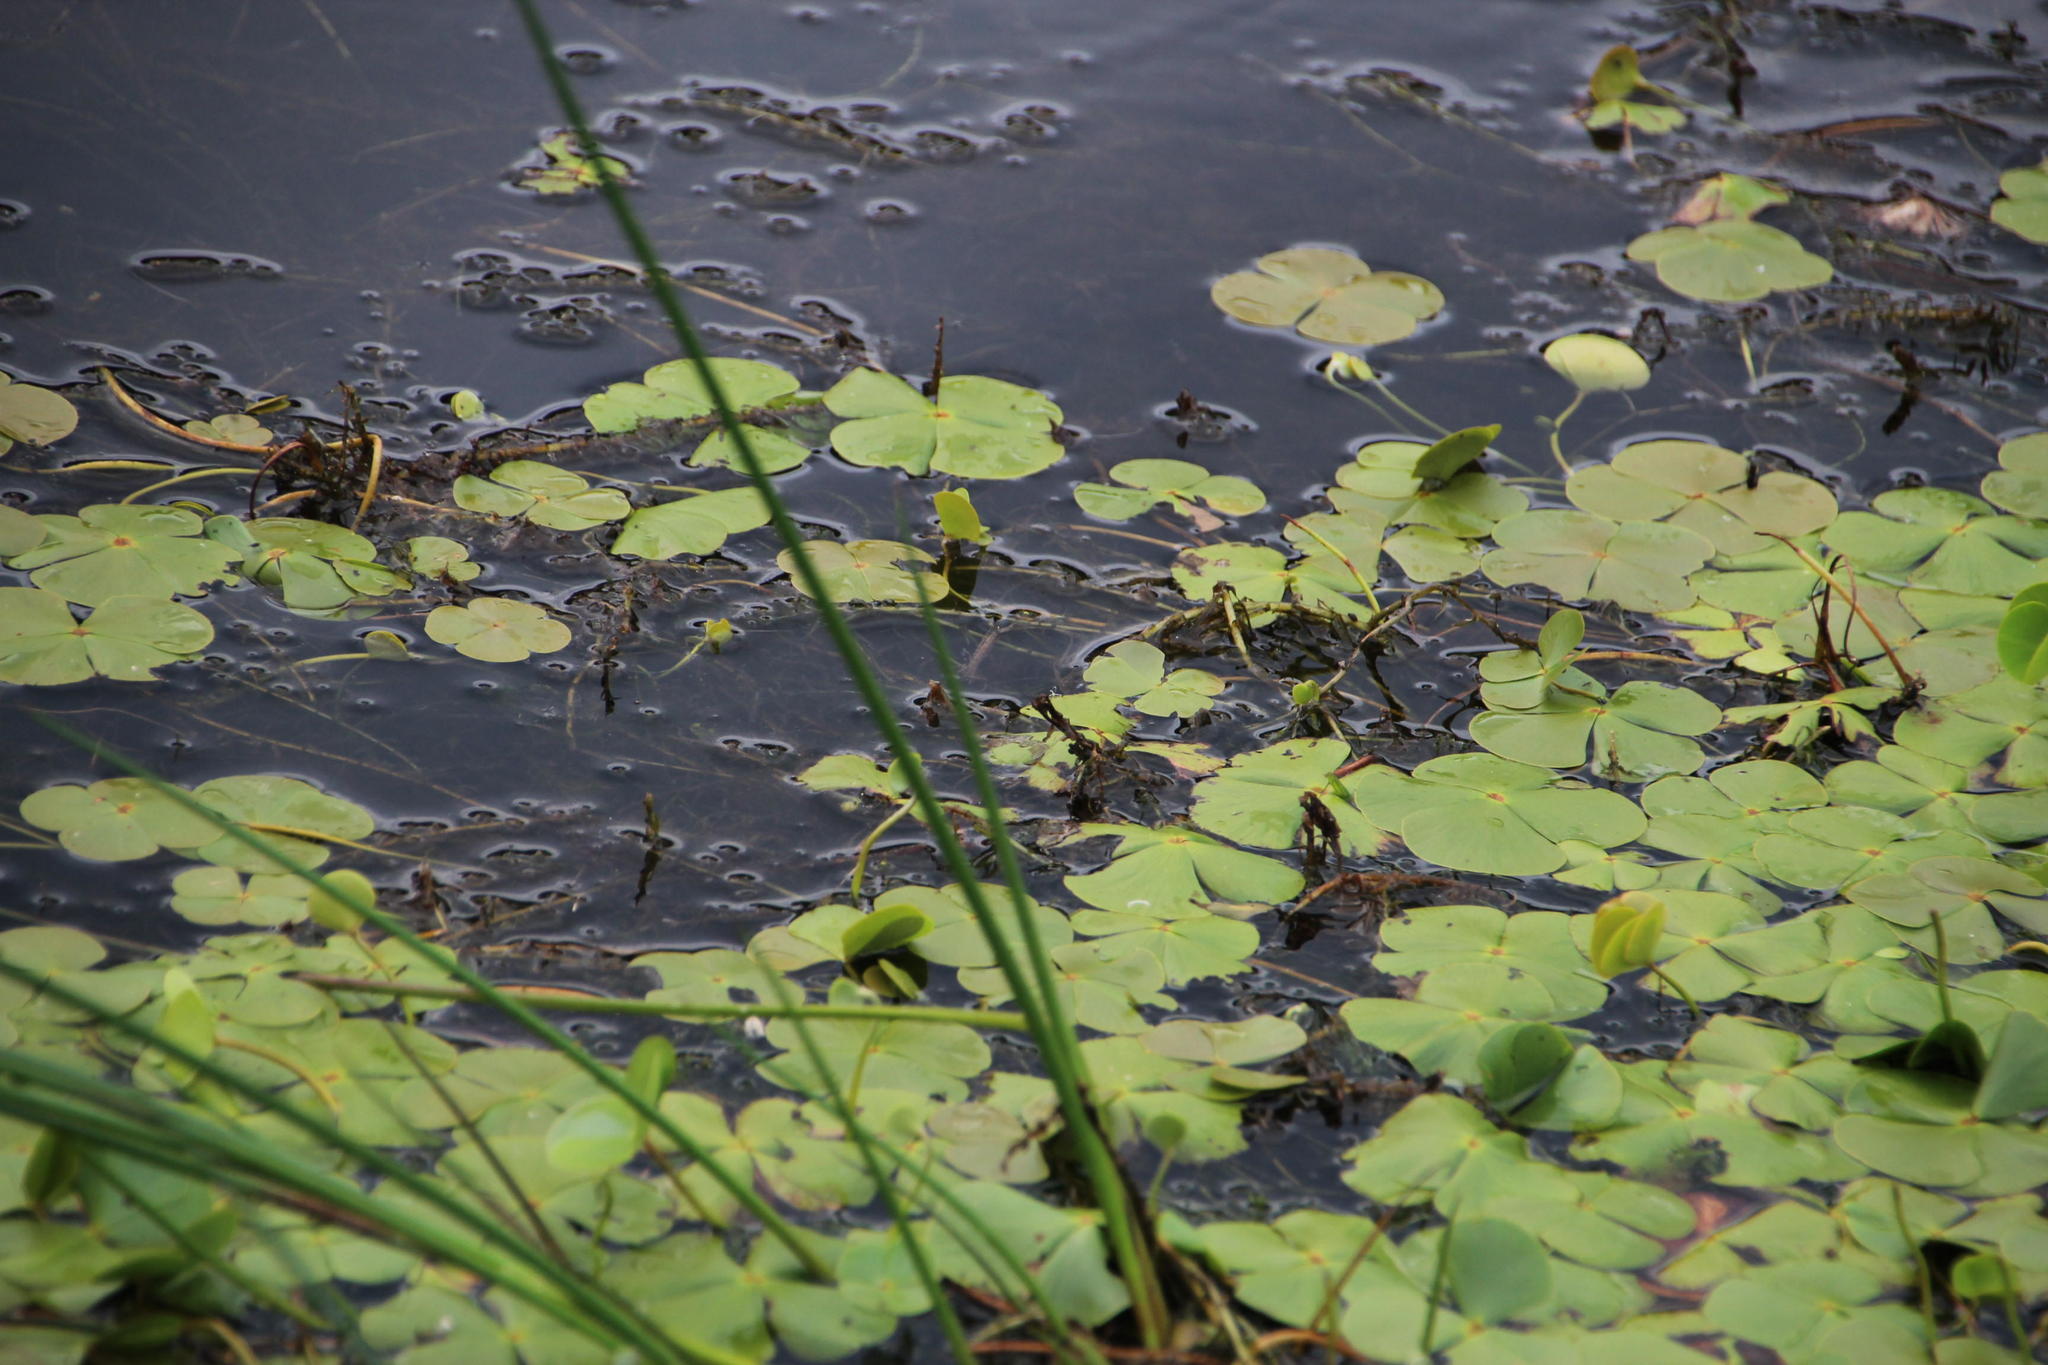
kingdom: Plantae
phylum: Tracheophyta
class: Polypodiopsida
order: Salviniales
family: Marsileaceae
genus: Marsilea
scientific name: Marsilea macrocarpa
